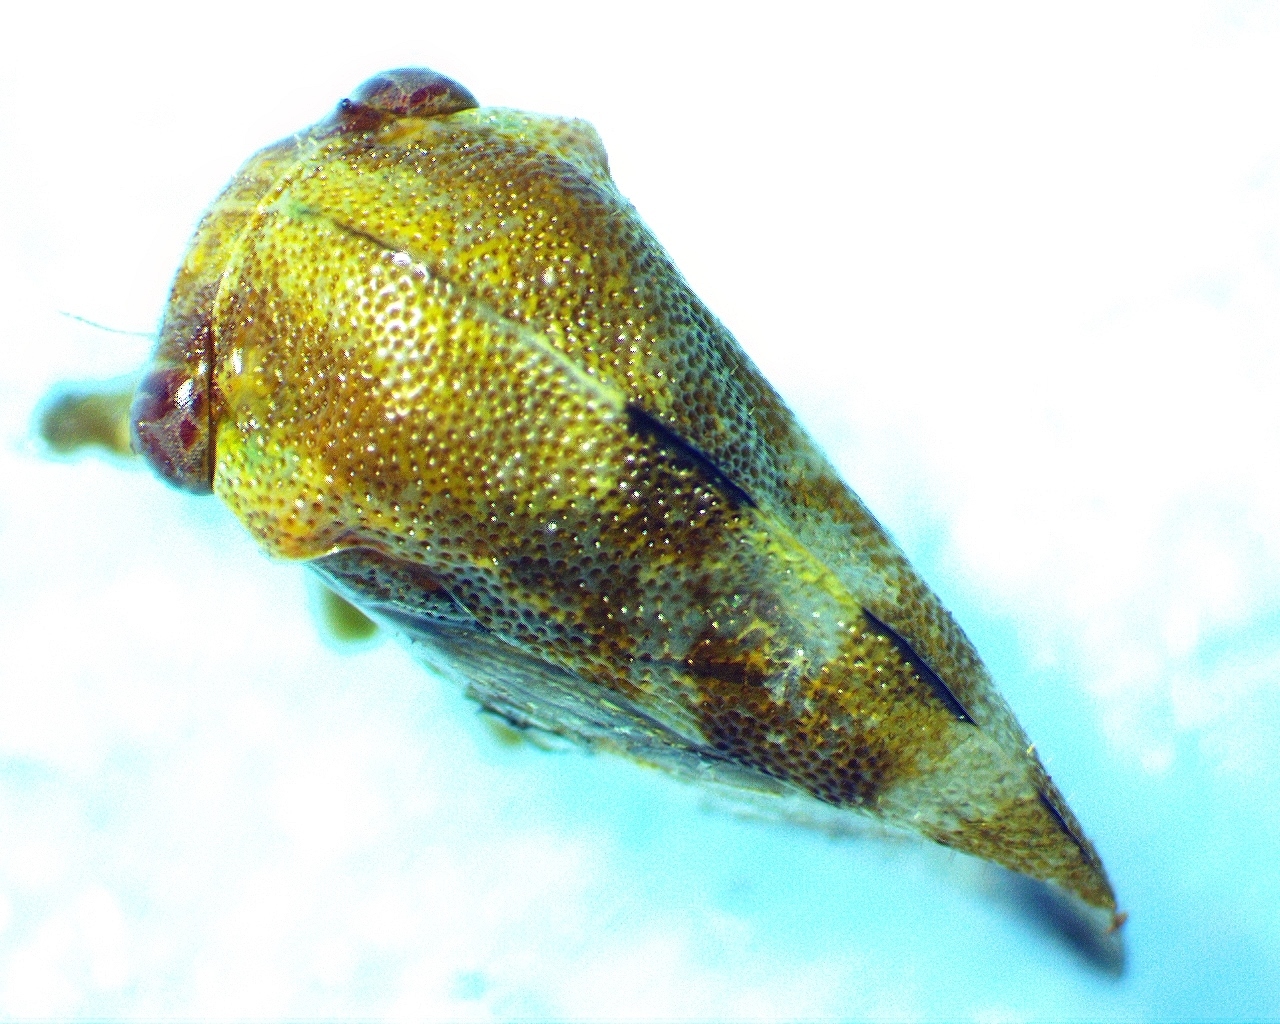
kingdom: Animalia
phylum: Arthropoda
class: Insecta
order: Hemiptera
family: Membracidae
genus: Cyrtolobus
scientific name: Cyrtolobus togatus
